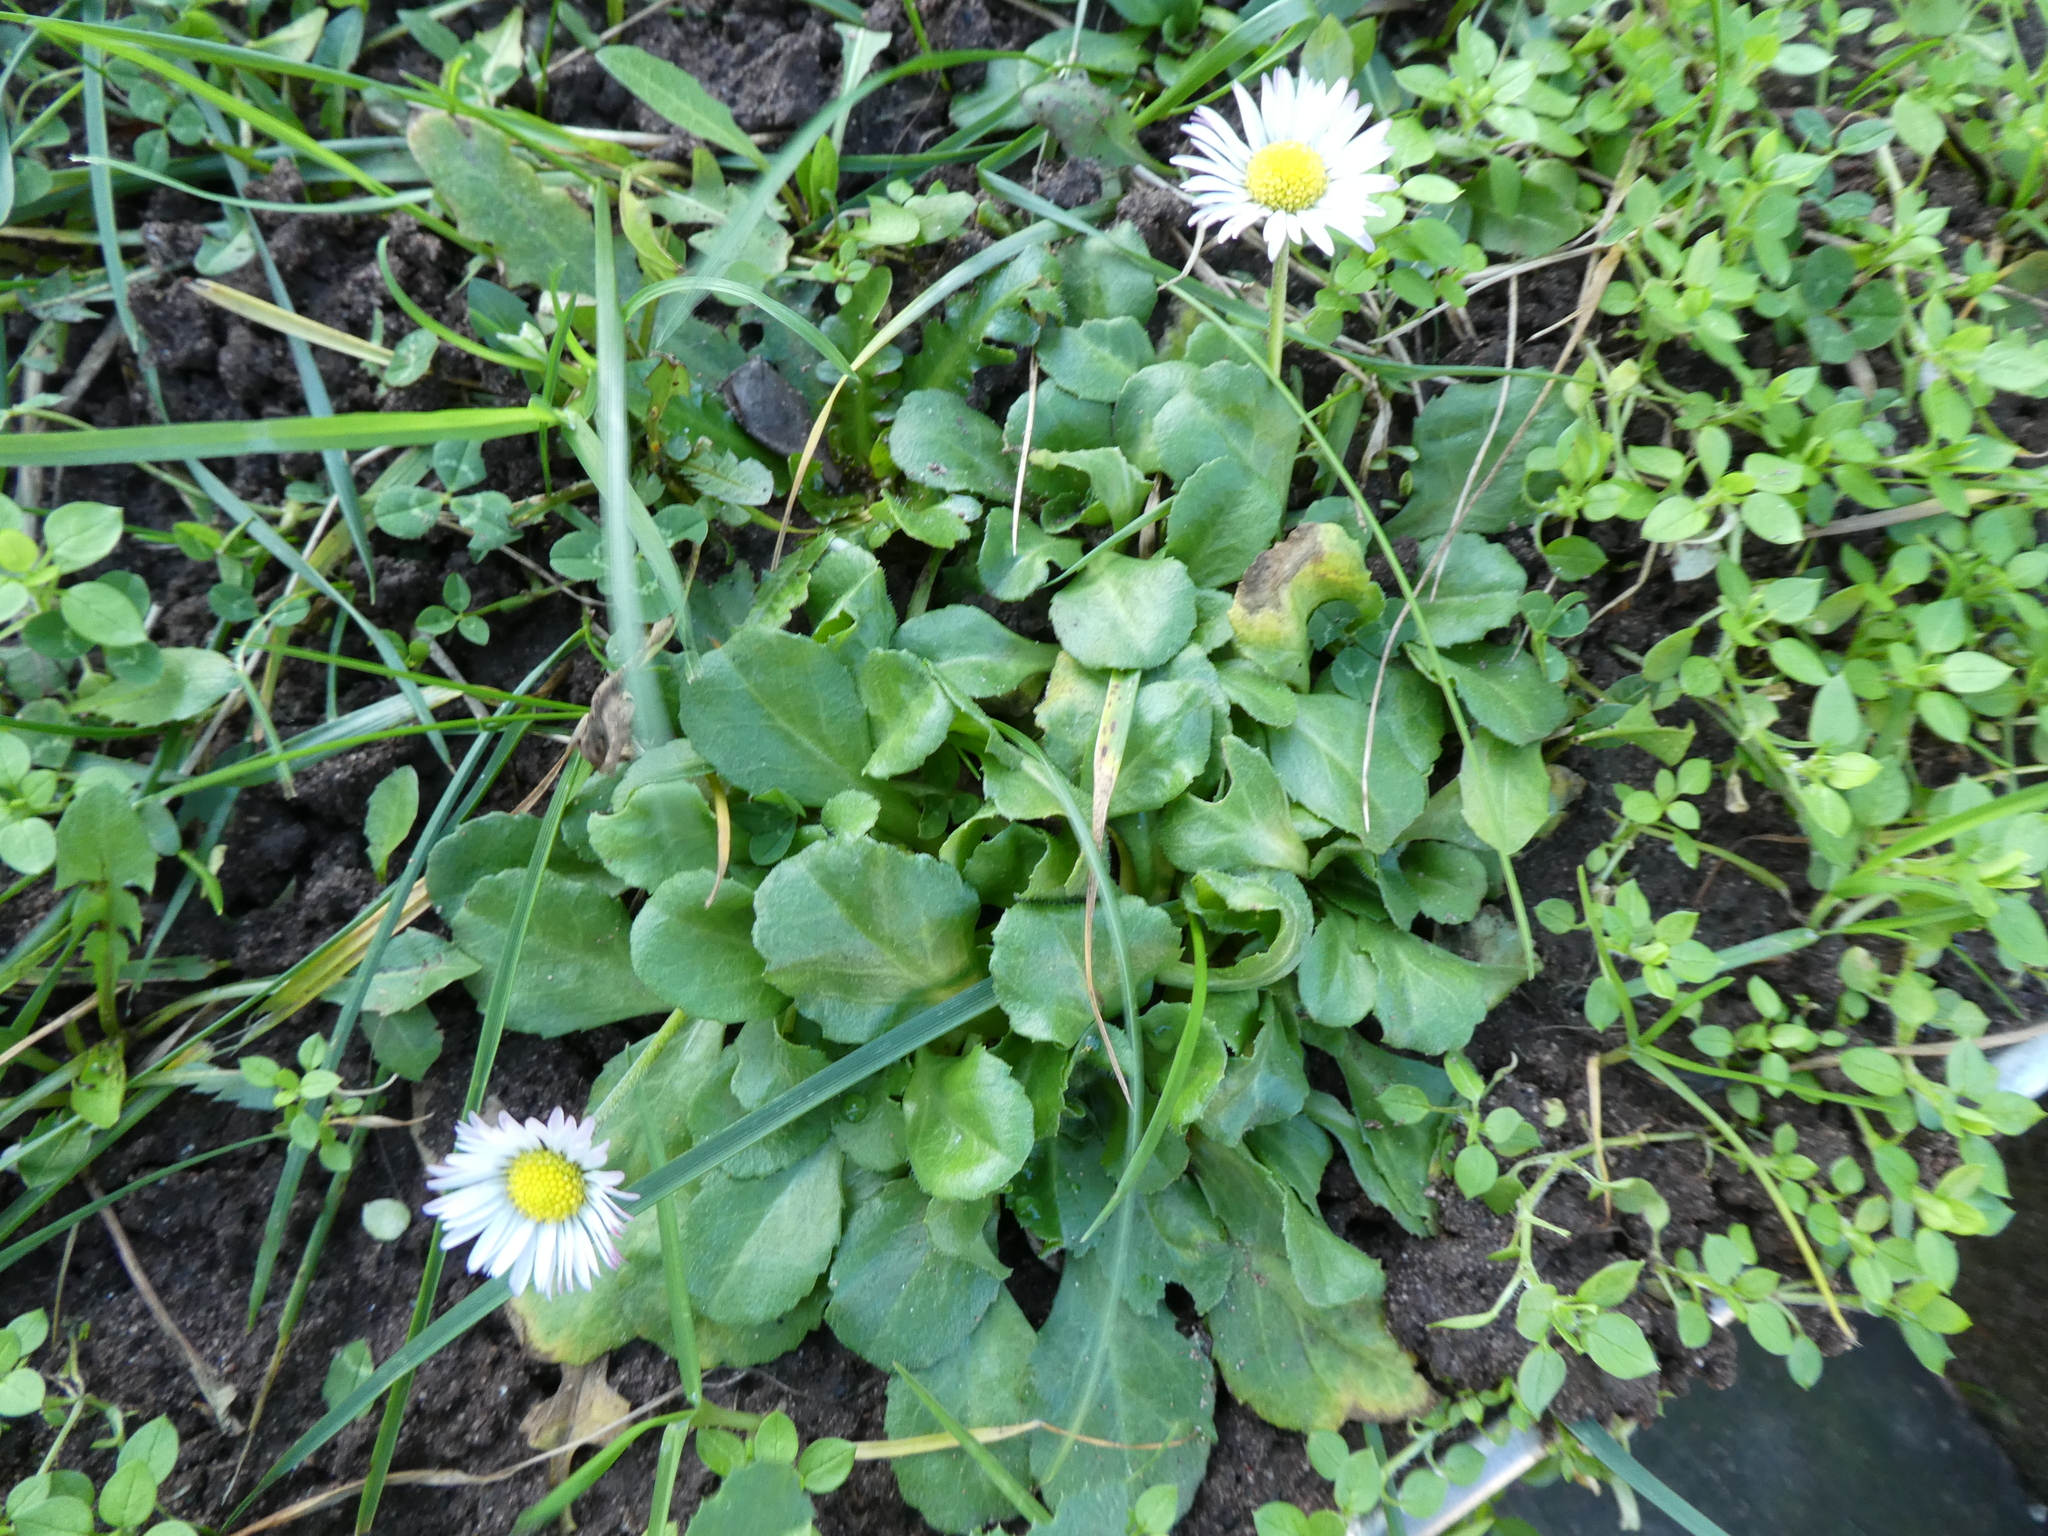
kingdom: Plantae
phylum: Tracheophyta
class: Magnoliopsida
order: Asterales
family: Asteraceae
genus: Bellis
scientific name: Bellis perennis
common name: Lawndaisy
